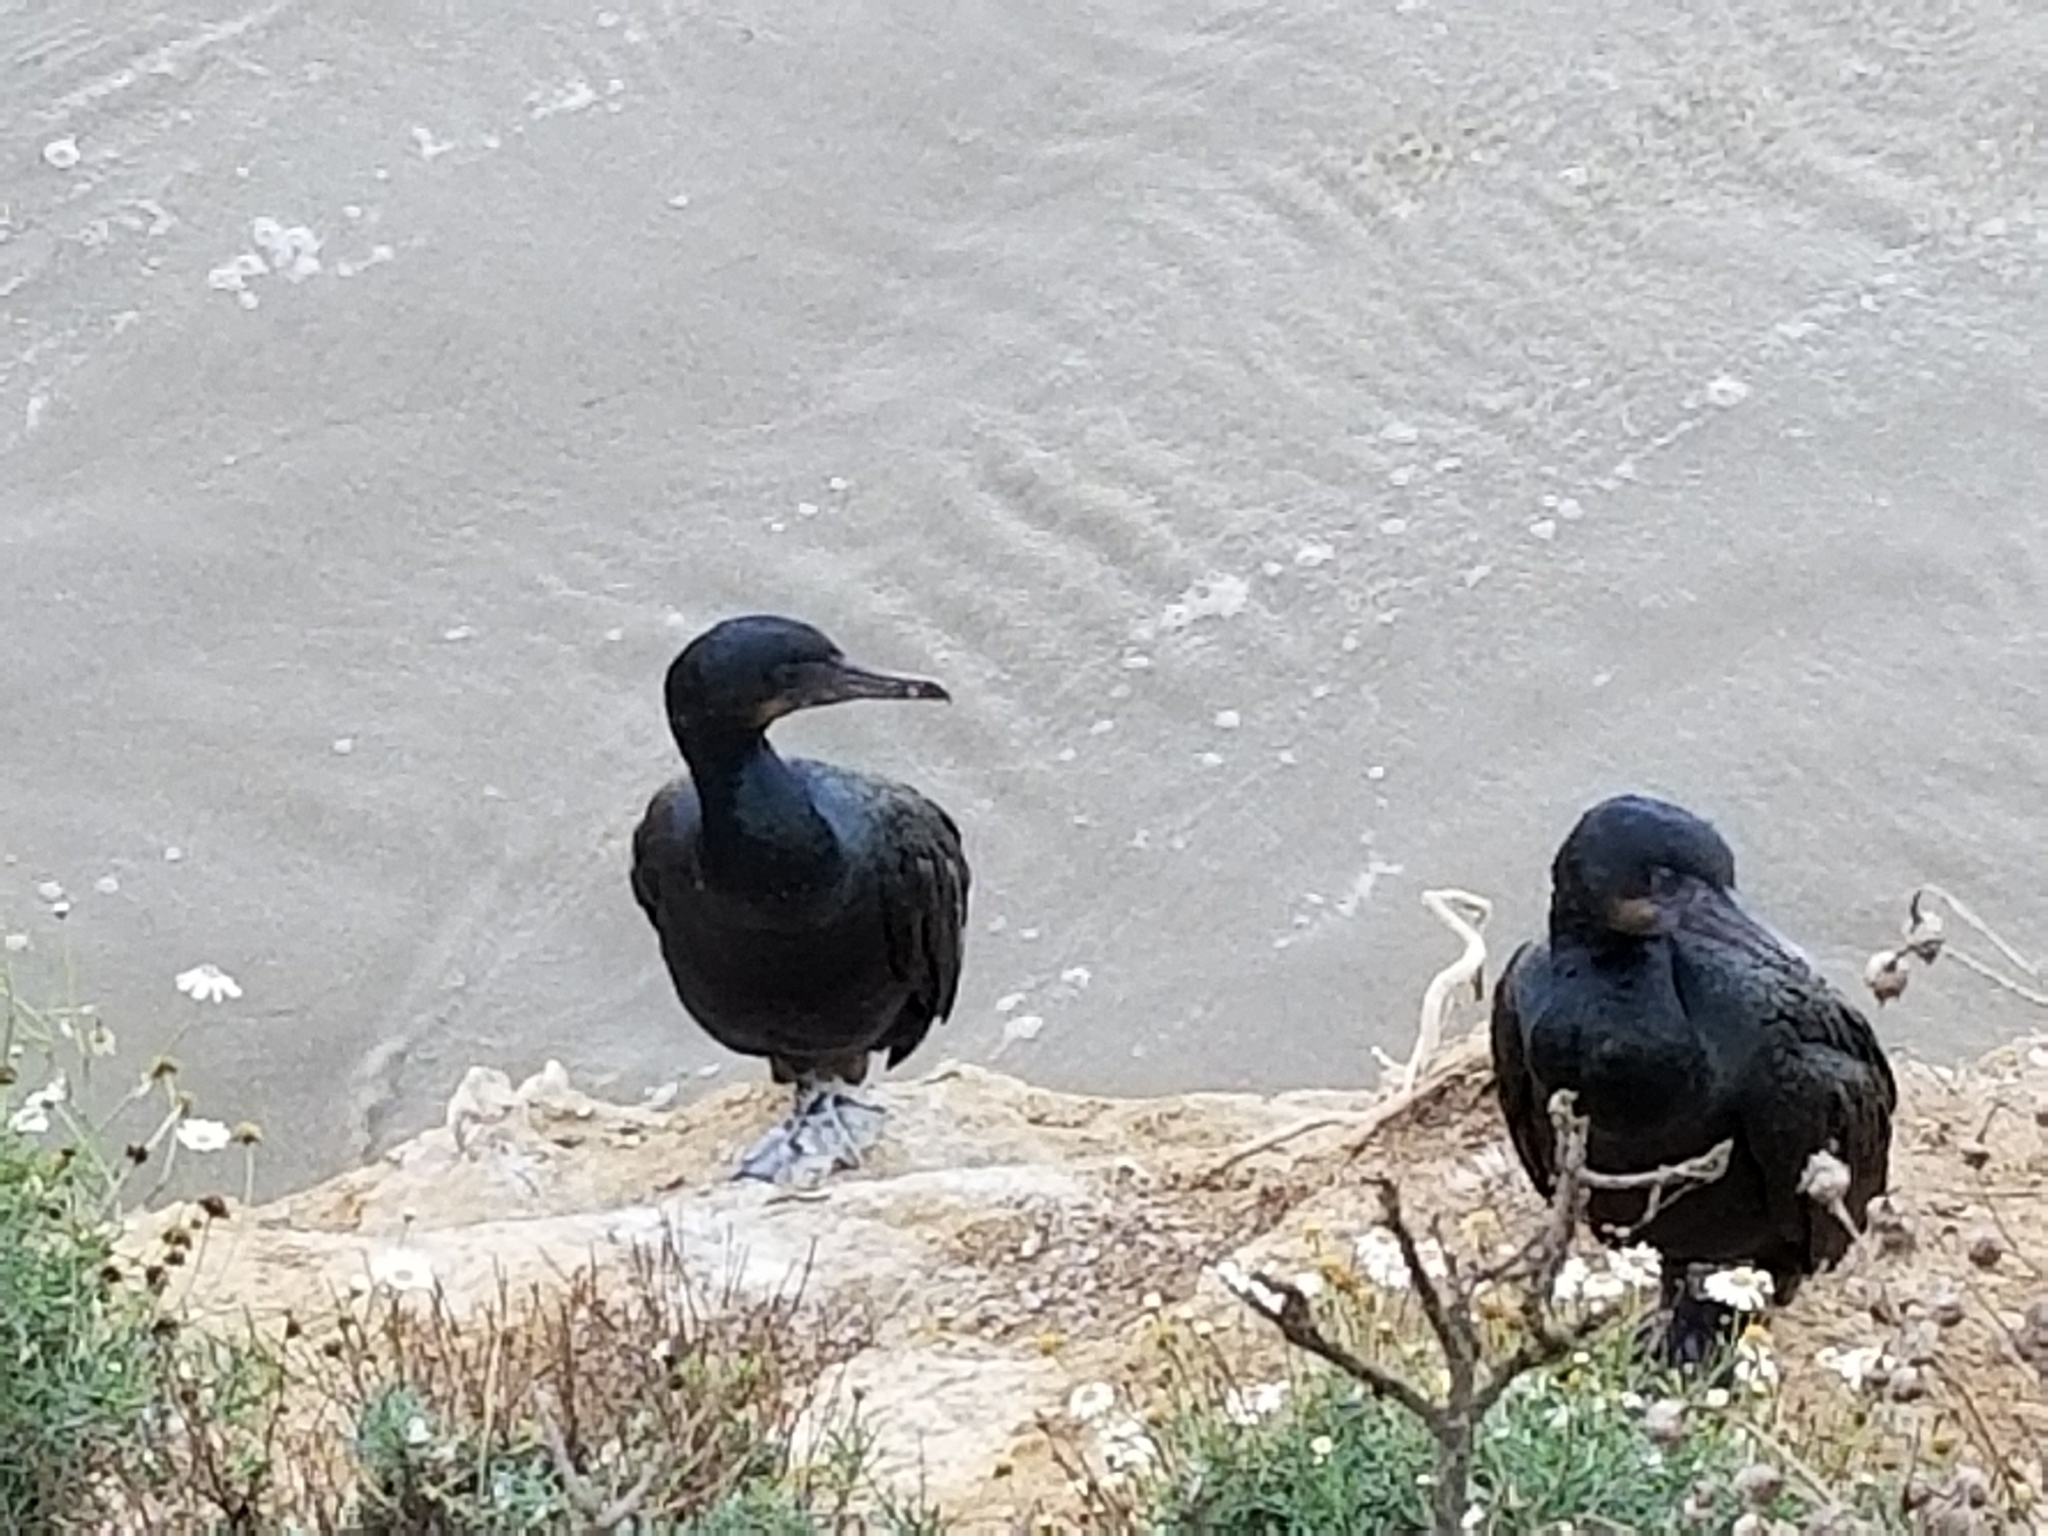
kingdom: Animalia
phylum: Chordata
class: Aves
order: Suliformes
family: Phalacrocoracidae
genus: Urile
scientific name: Urile penicillatus
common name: Brandt's cormorant
